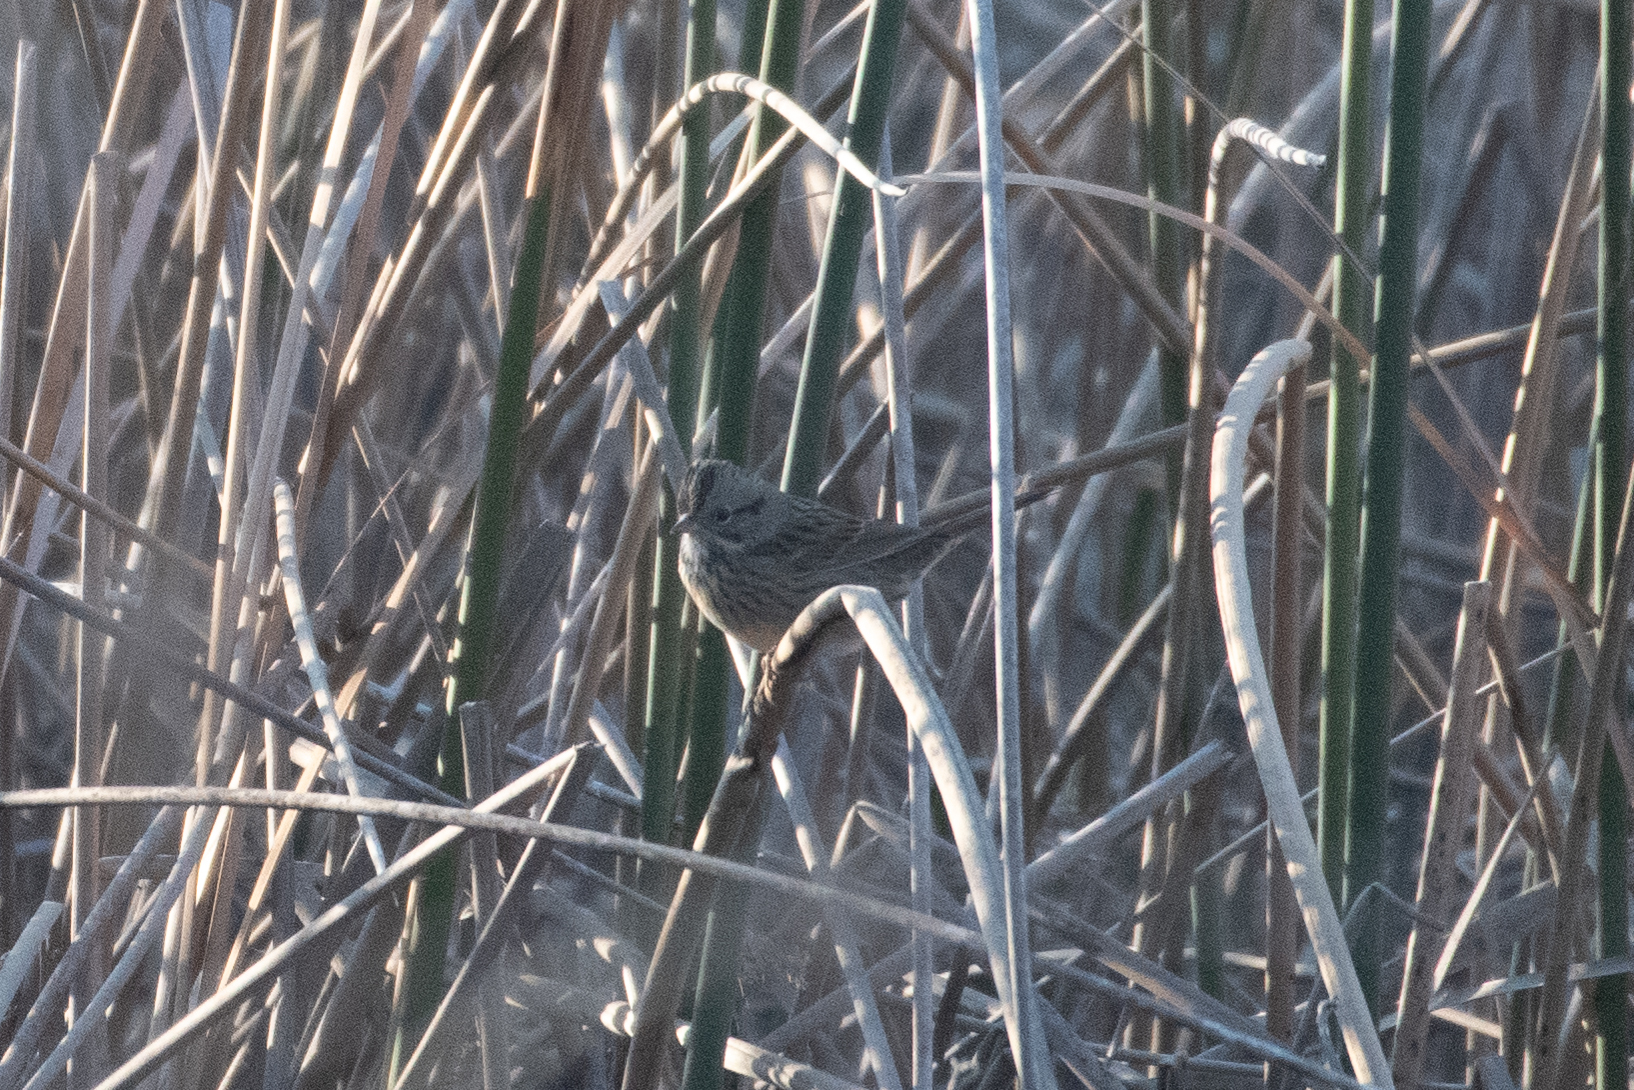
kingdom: Animalia
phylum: Chordata
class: Aves
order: Passeriformes
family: Passerellidae
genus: Melospiza
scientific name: Melospiza lincolnii
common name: Lincoln's sparrow
